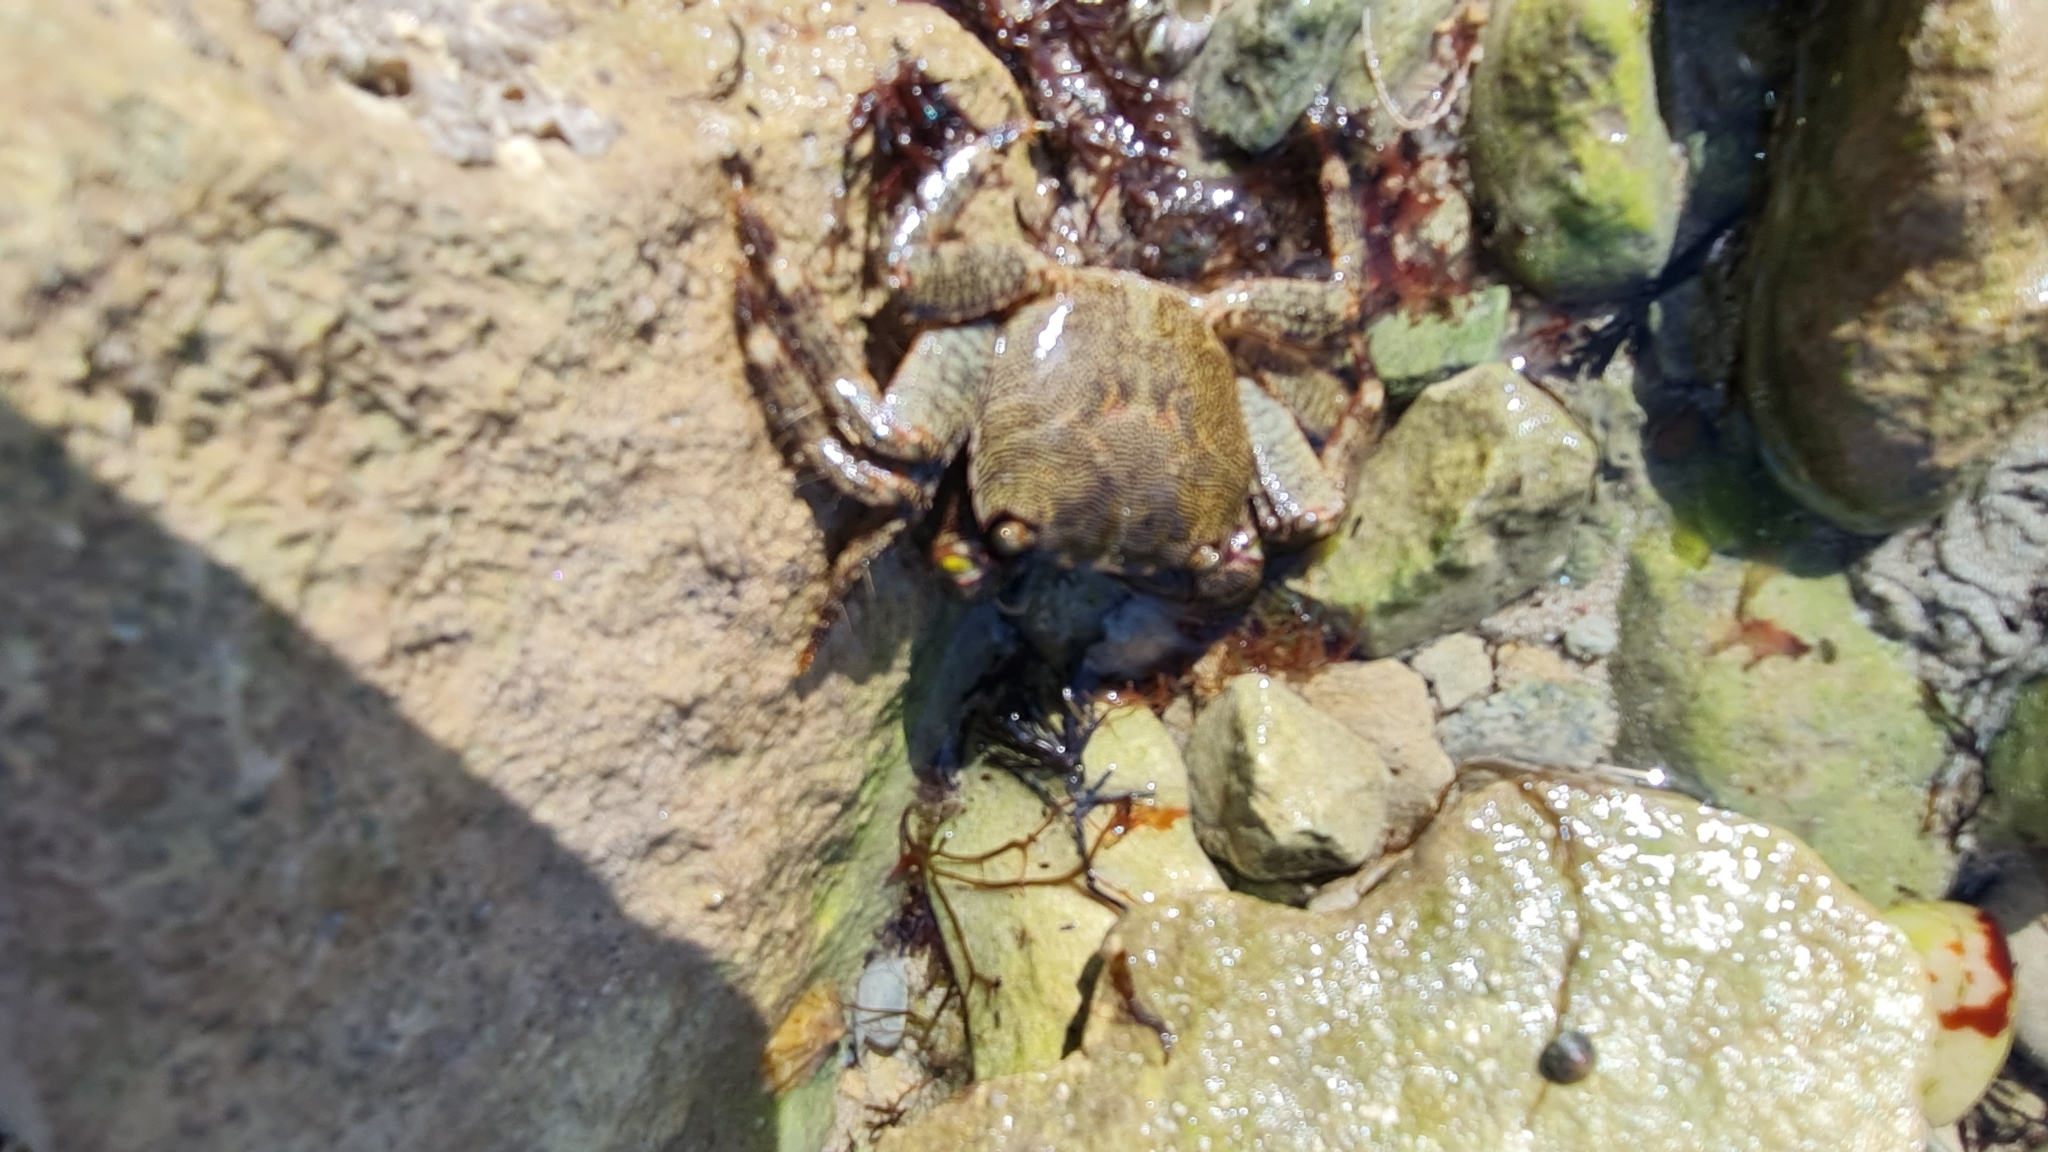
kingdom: Animalia
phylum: Arthropoda
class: Malacostraca
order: Decapoda
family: Grapsidae
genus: Pachygrapsus
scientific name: Pachygrapsus marmoratus
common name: Marbled rock crab
